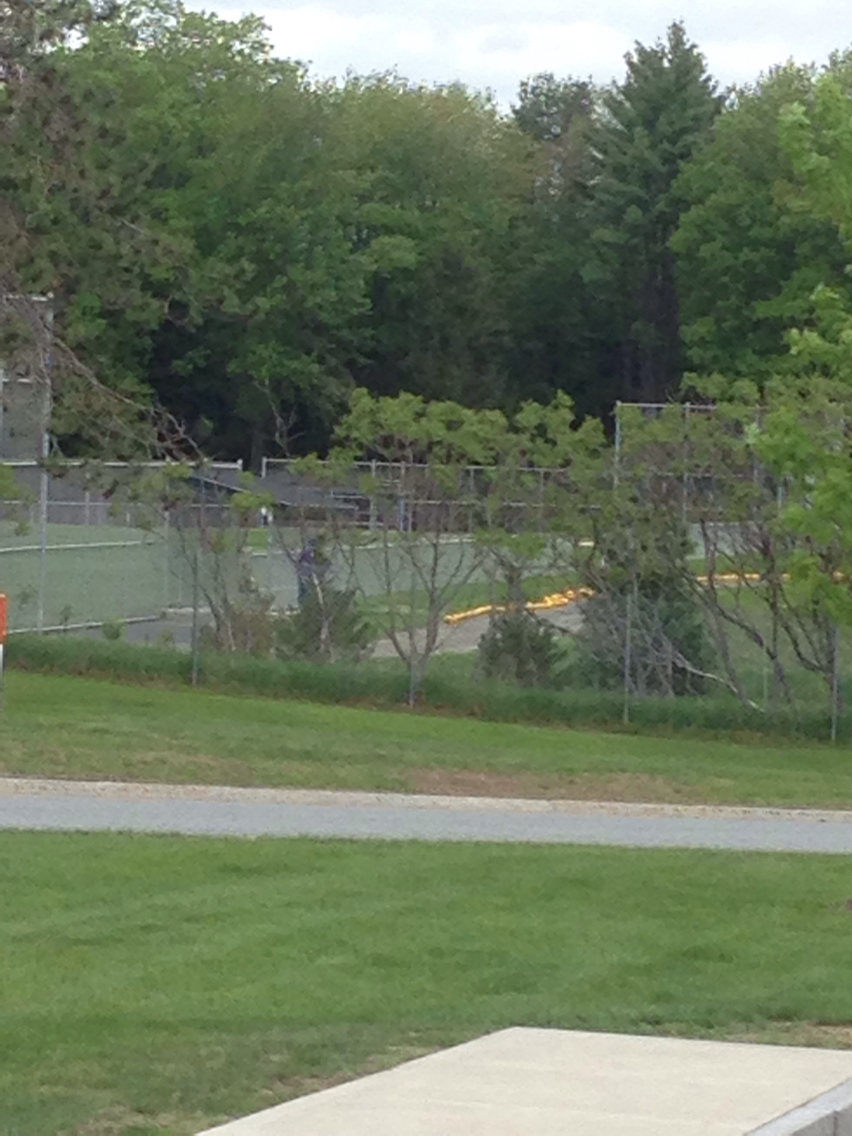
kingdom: Plantae
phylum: Tracheophyta
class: Magnoliopsida
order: Sapindales
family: Anacardiaceae
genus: Rhus
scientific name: Rhus typhina
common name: Staghorn sumac
